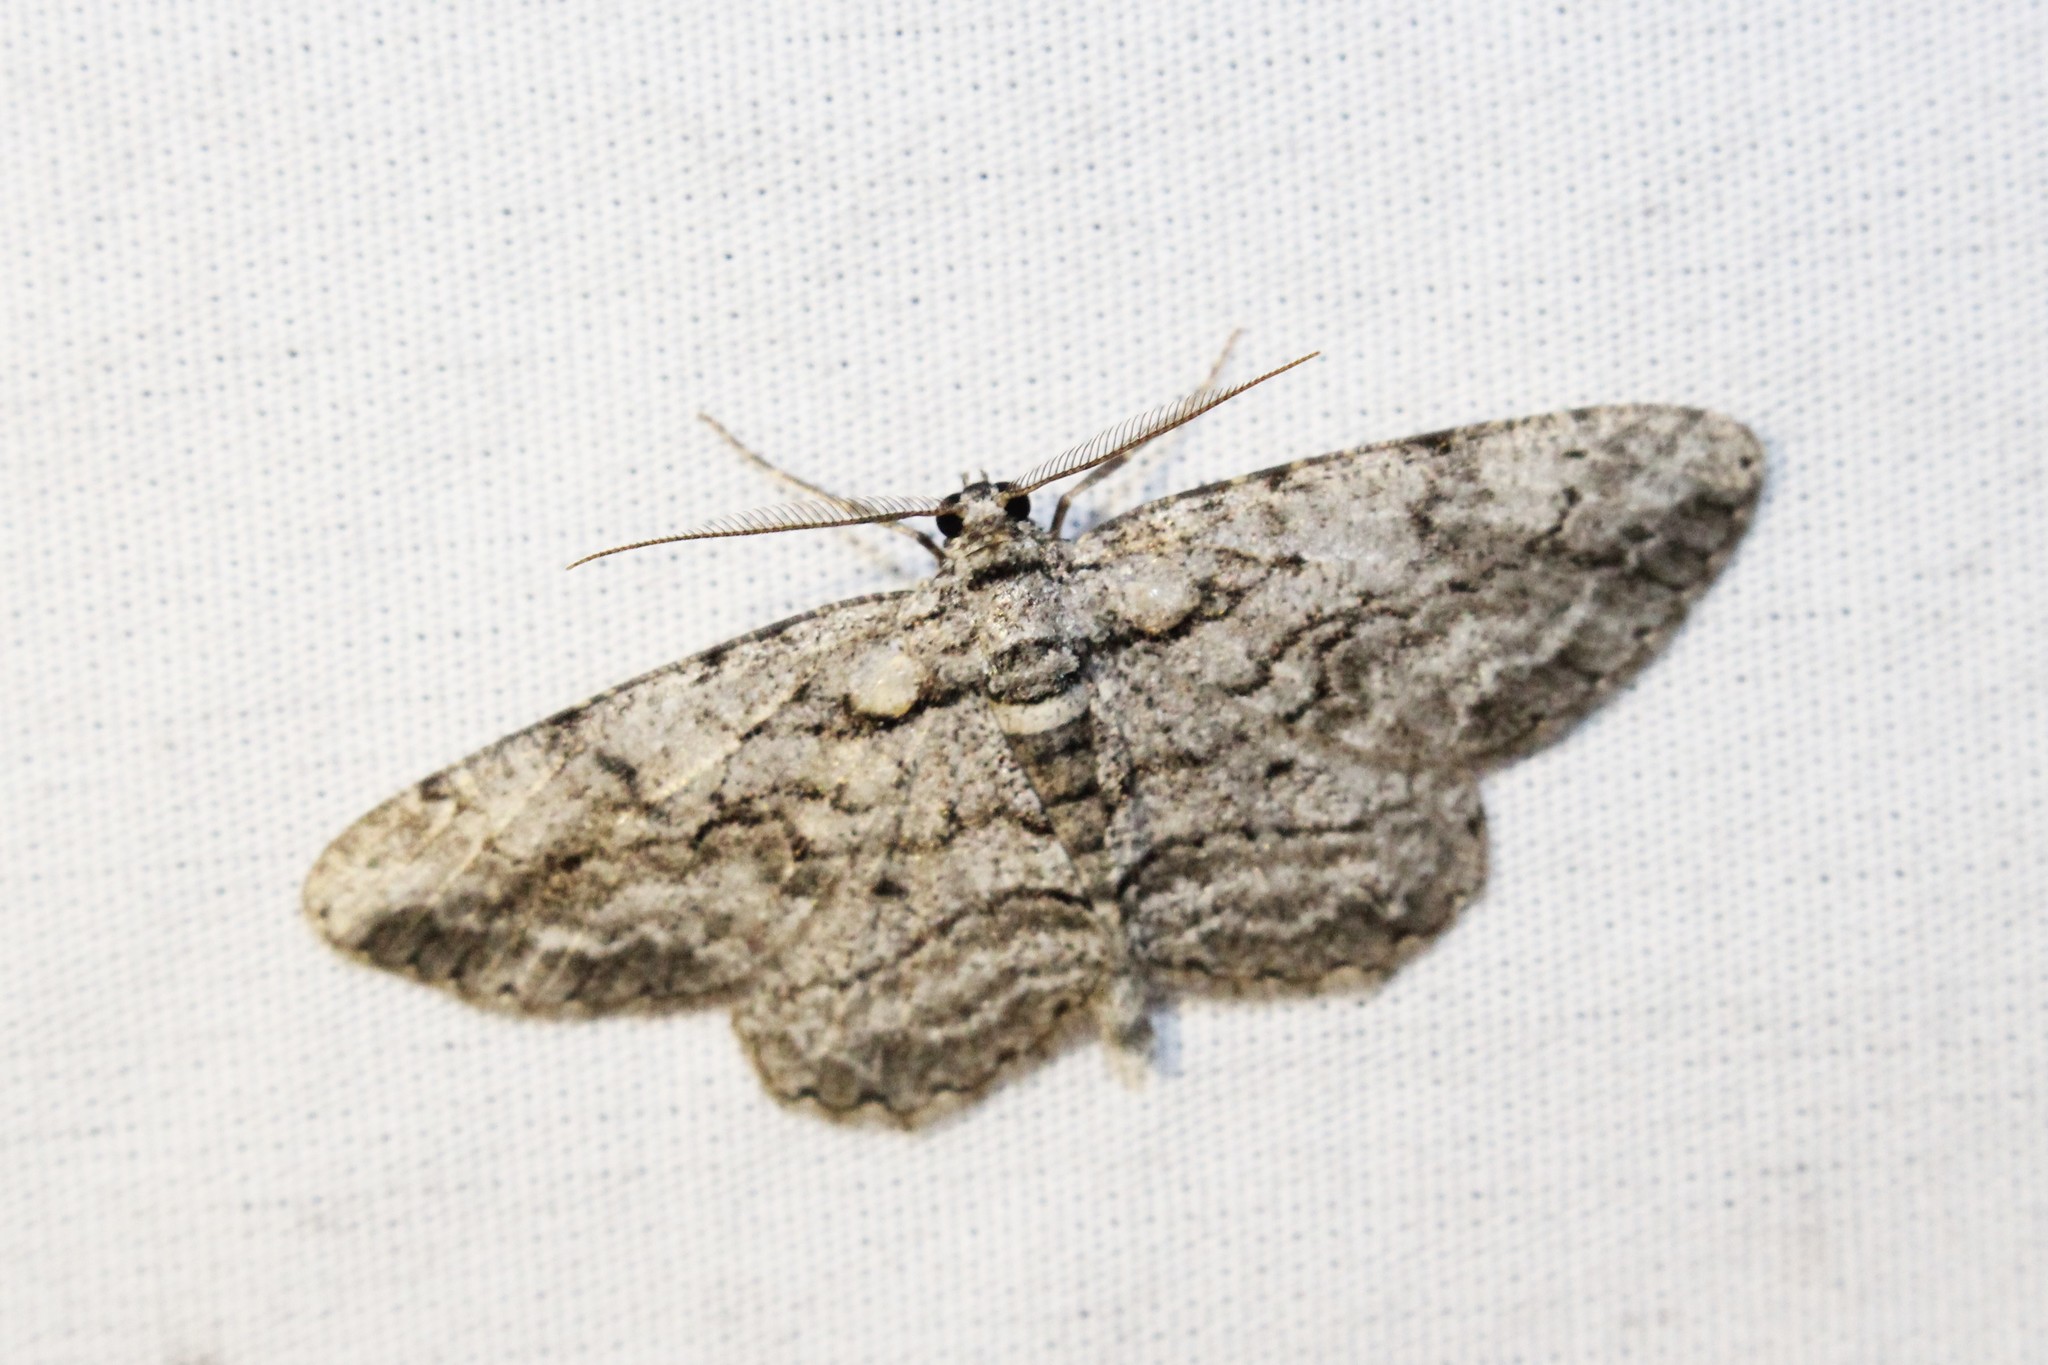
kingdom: Animalia
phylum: Arthropoda
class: Insecta
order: Lepidoptera
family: Geometridae
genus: Anavitrinella
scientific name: Anavitrinella pampinaria
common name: Common gray
